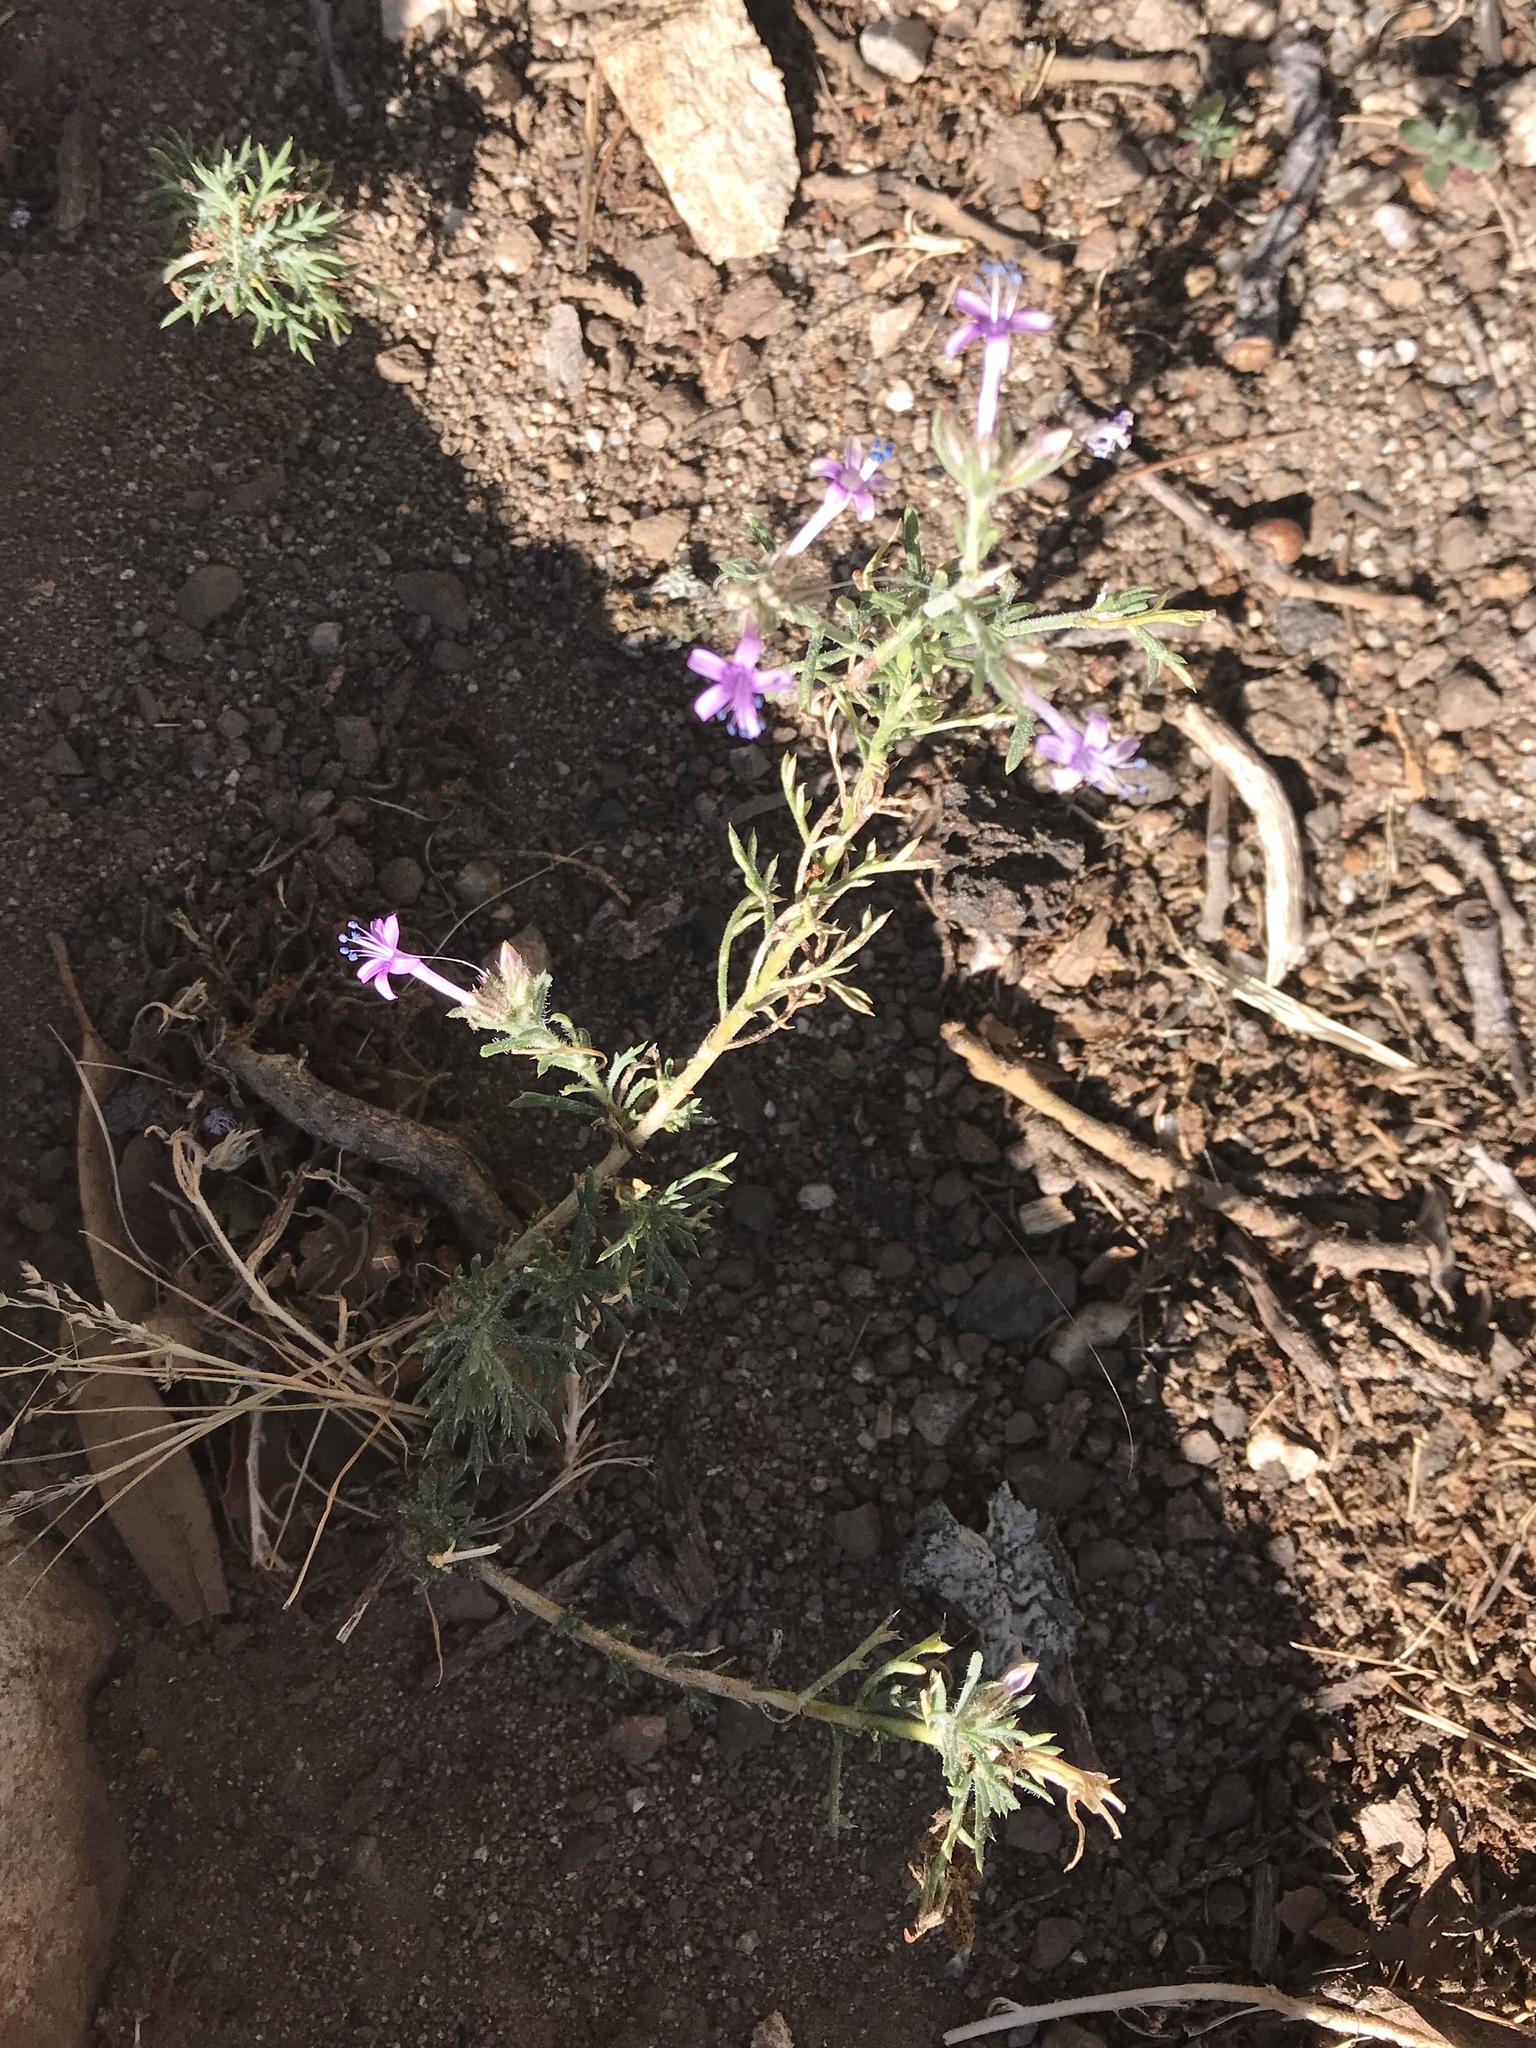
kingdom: Plantae
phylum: Tracheophyta
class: Magnoliopsida
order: Ericales
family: Polemoniaceae
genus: Ipomopsis
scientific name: Ipomopsis multiflora
